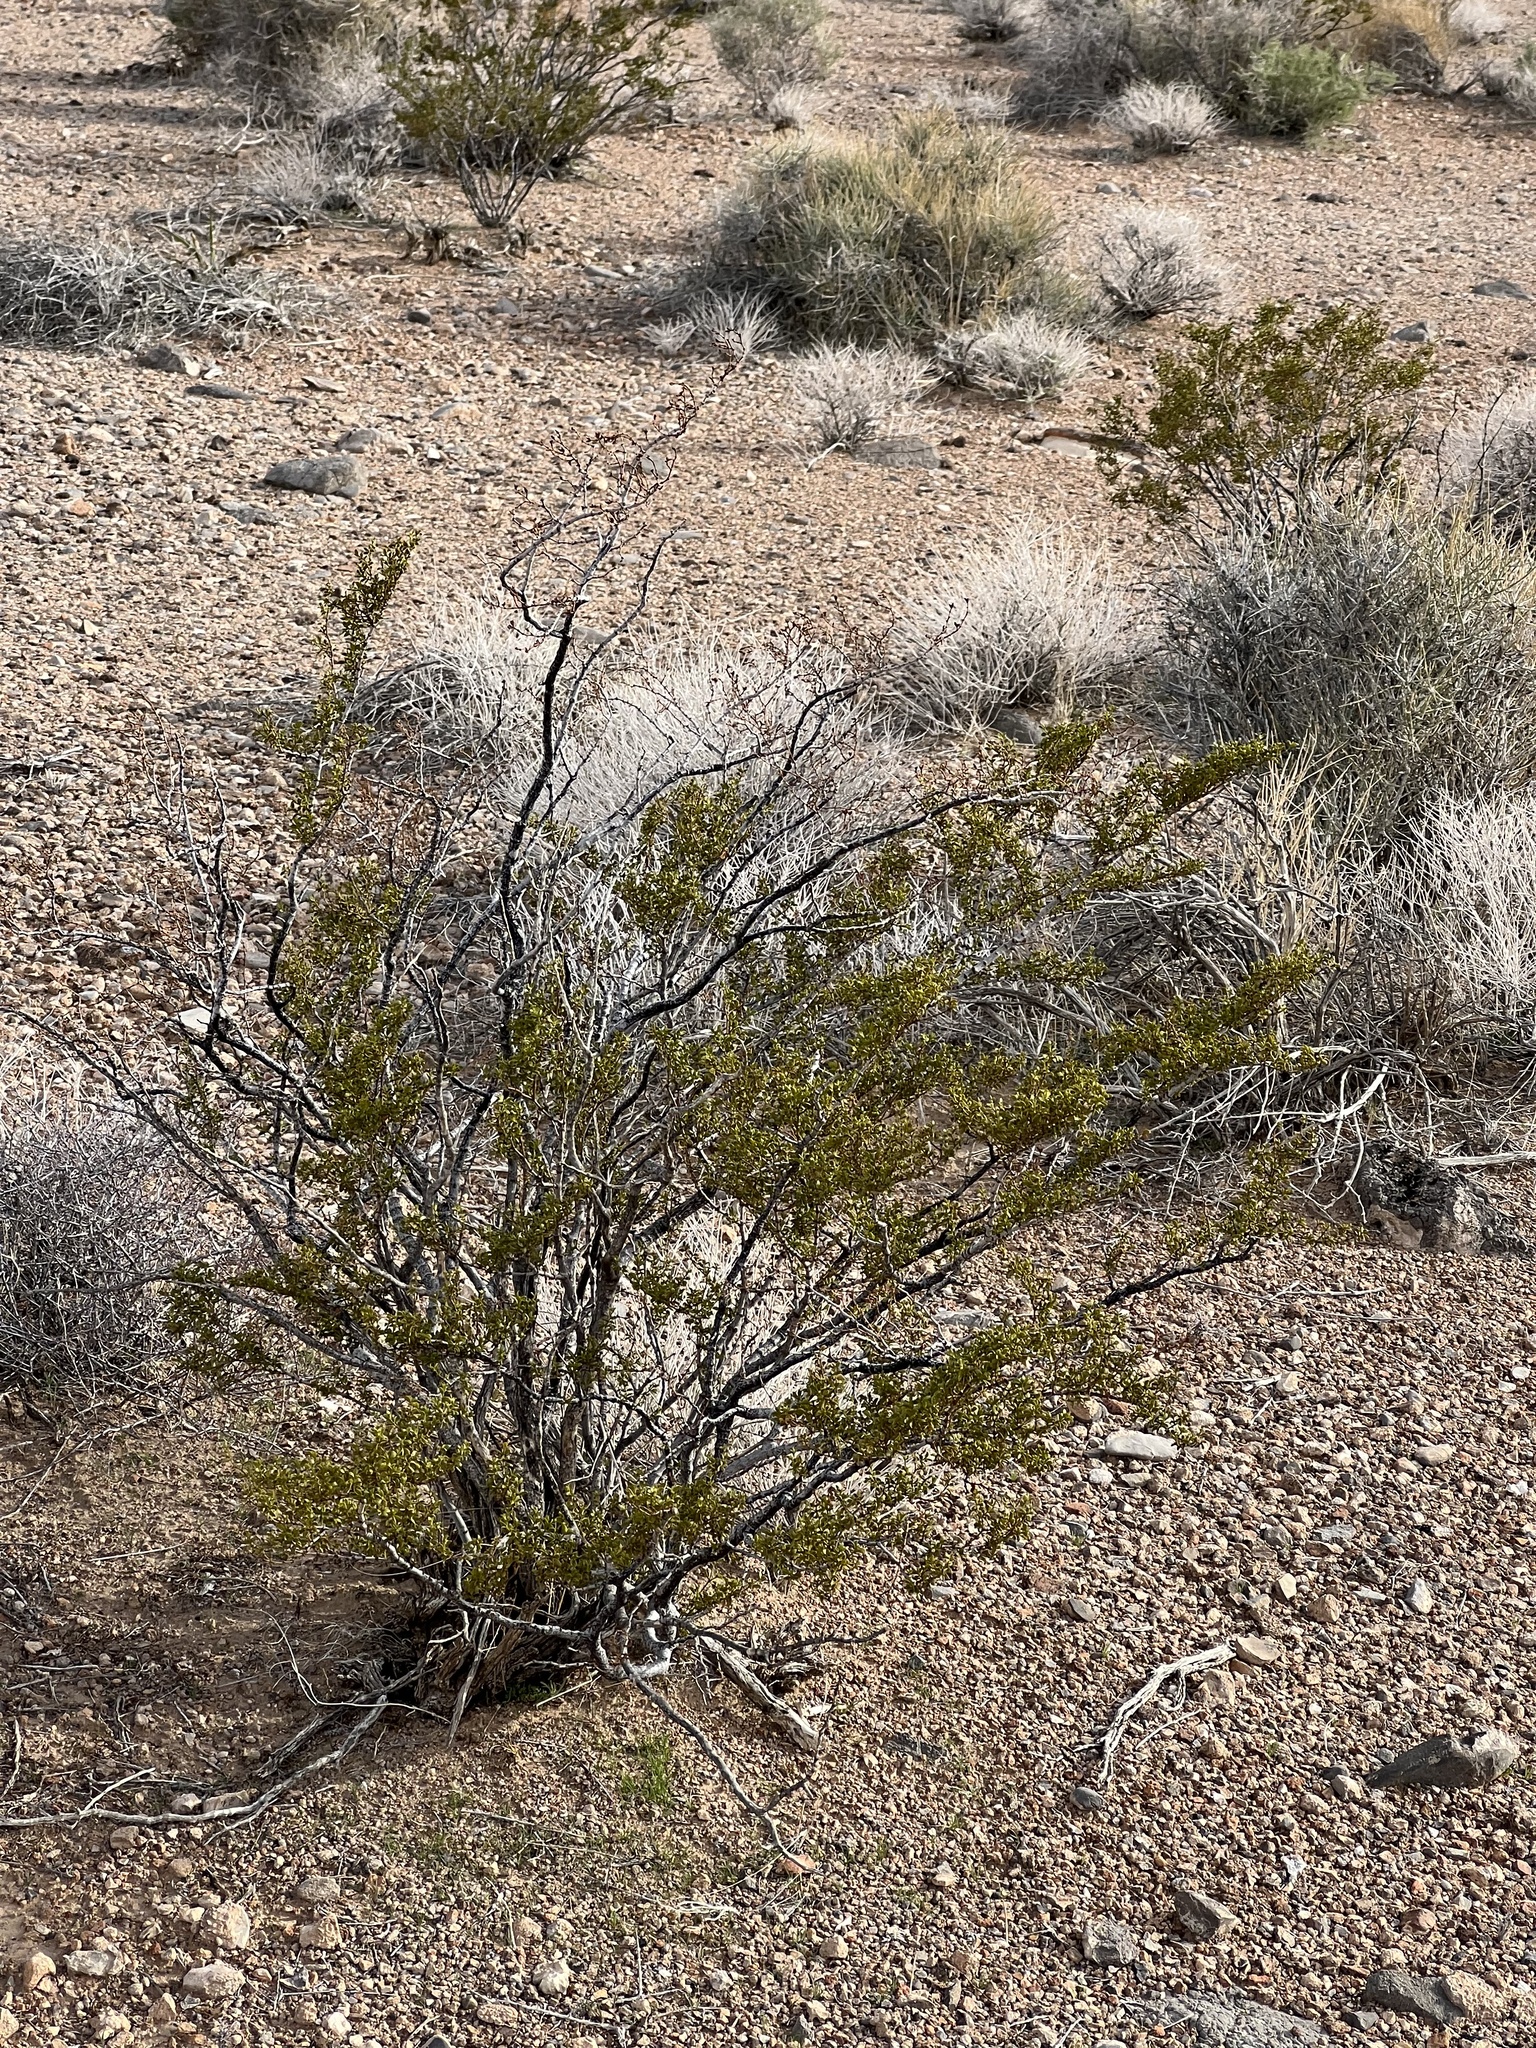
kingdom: Plantae
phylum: Tracheophyta
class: Magnoliopsida
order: Zygophyllales
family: Zygophyllaceae
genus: Larrea
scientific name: Larrea tridentata
